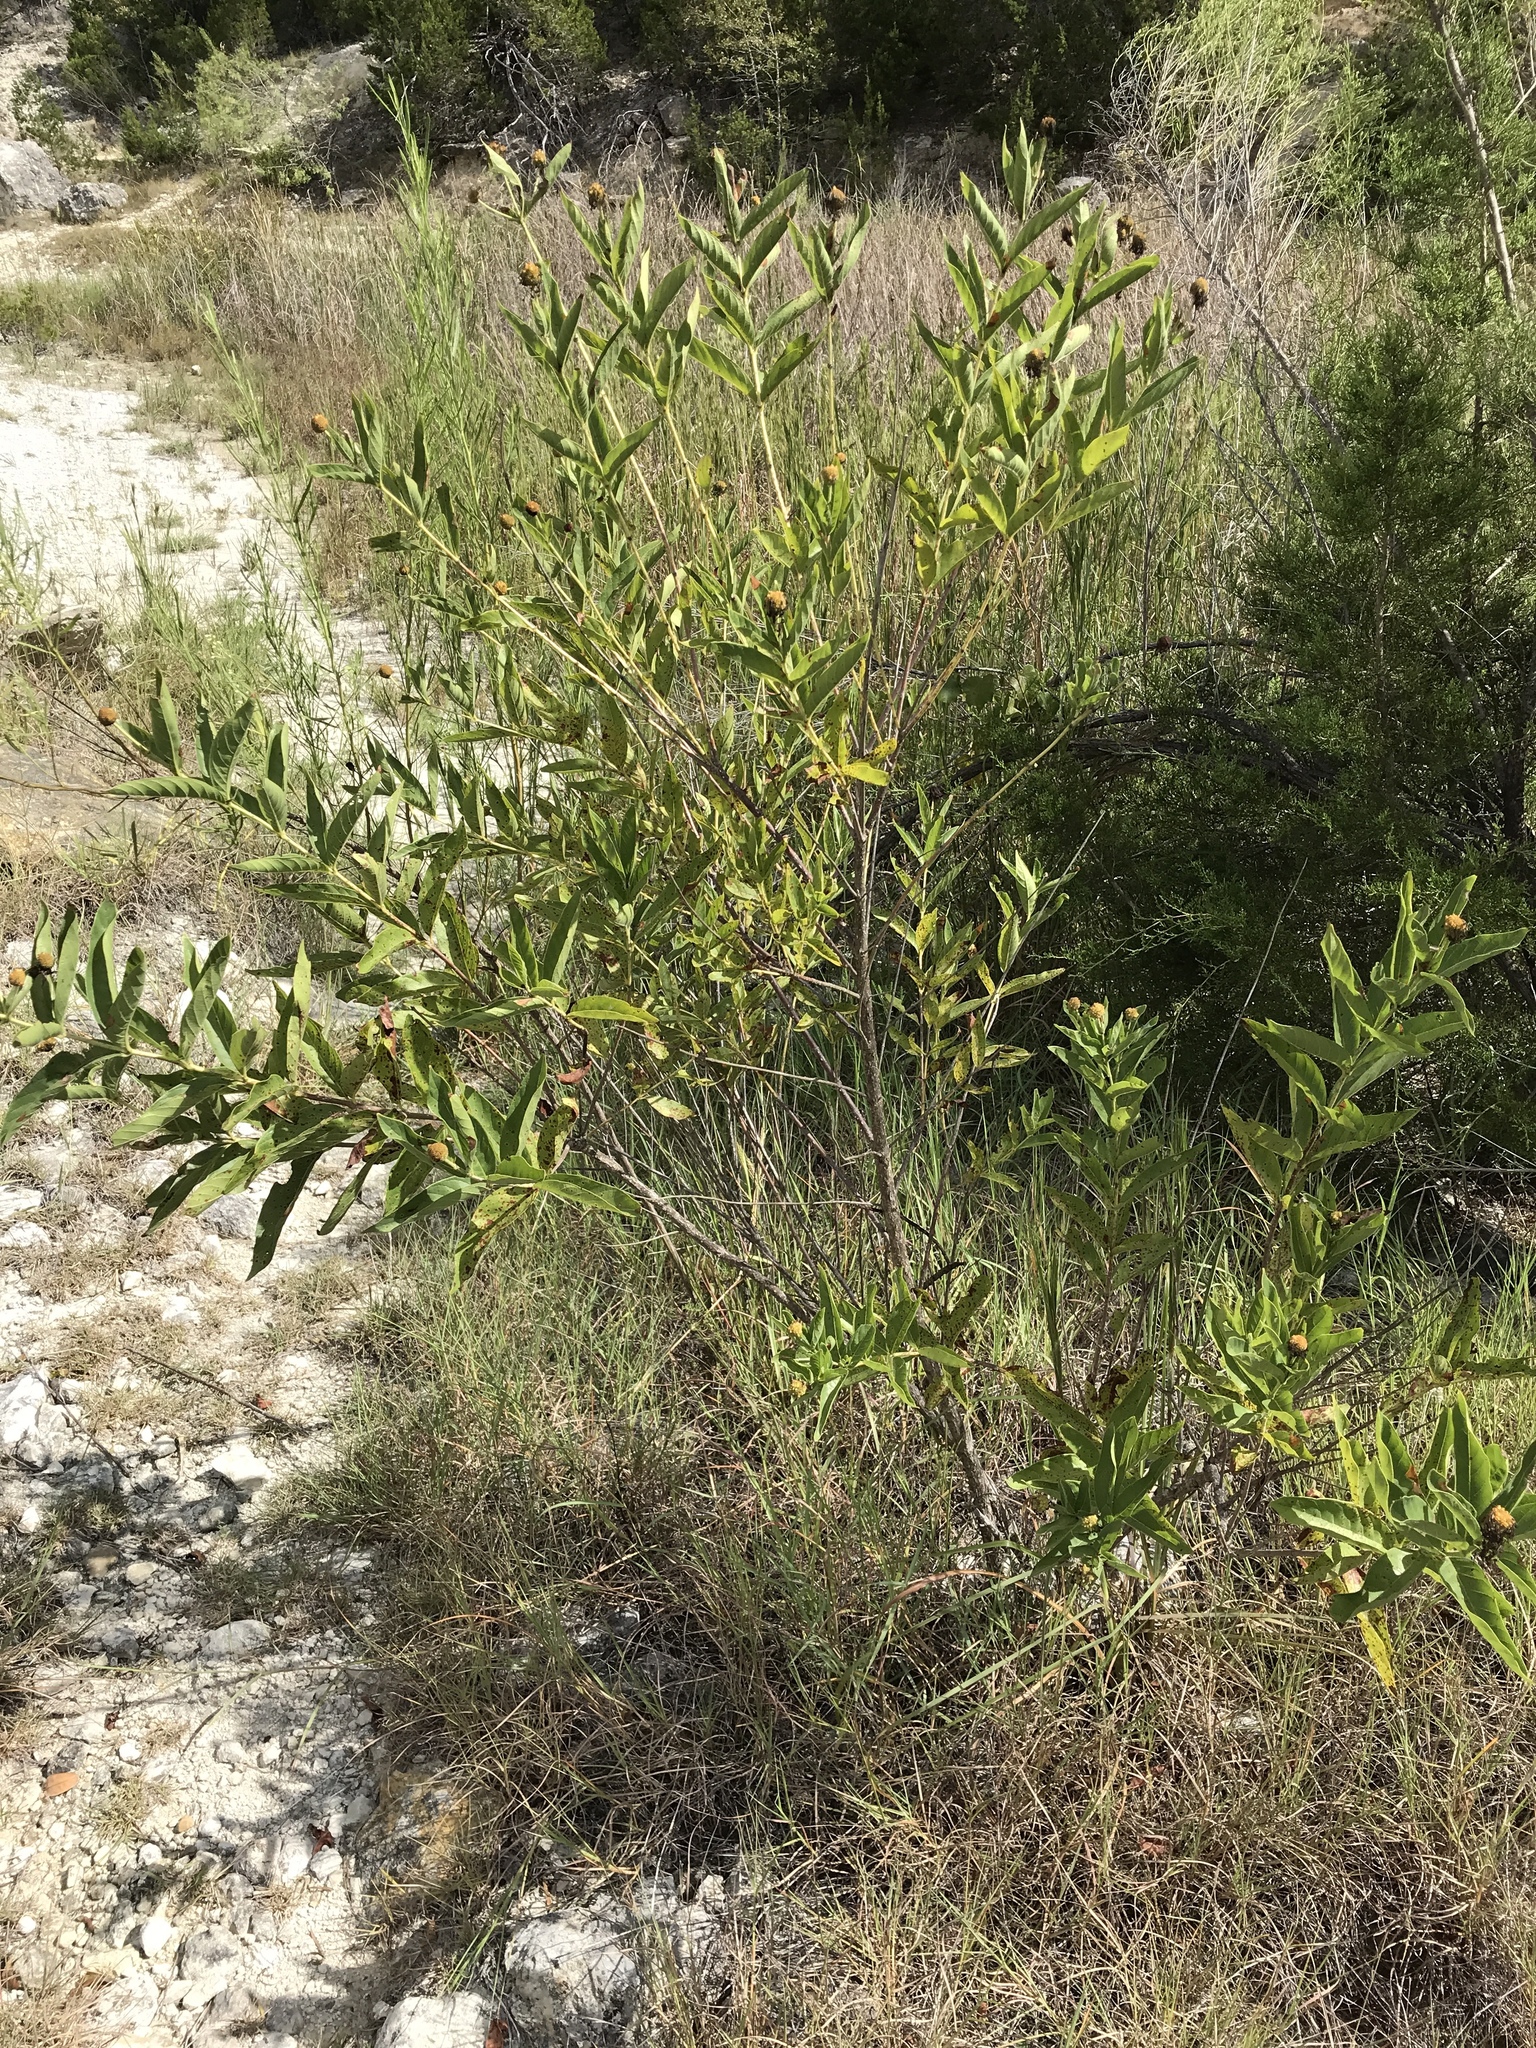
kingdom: Plantae
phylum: Tracheophyta
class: Magnoliopsida
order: Gentianales
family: Rubiaceae
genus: Cephalanthus
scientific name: Cephalanthus occidentalis
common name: Button-willow
